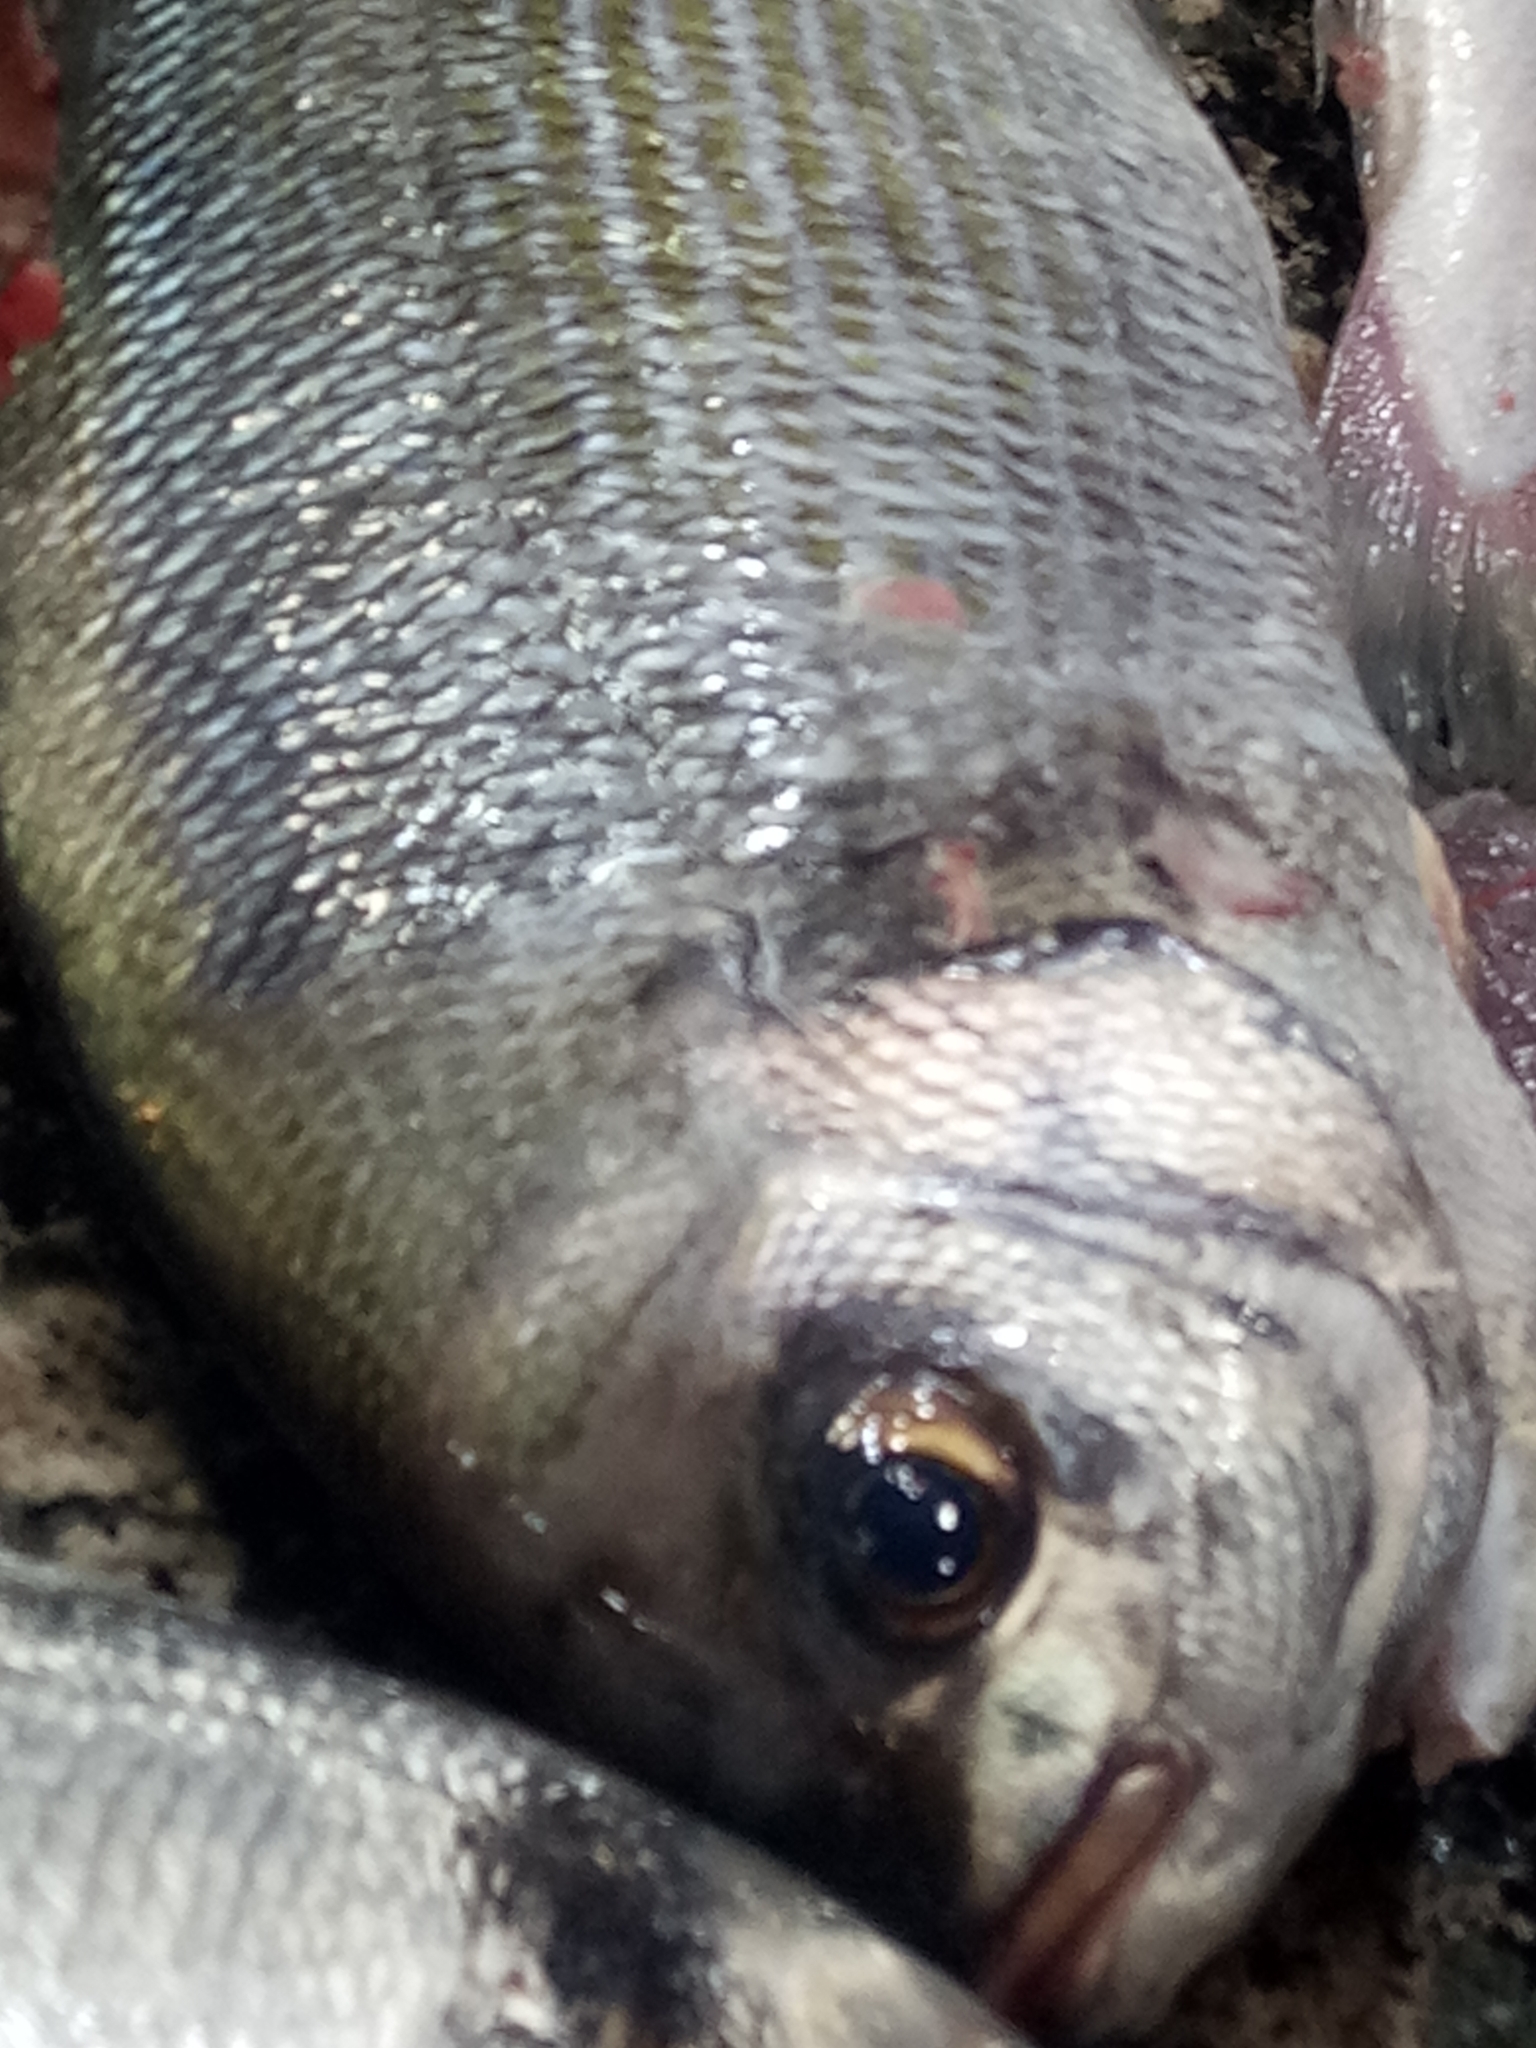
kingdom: Animalia
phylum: Chordata
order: Perciformes
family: Sparidae
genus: Spondyliosoma
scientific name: Spondyliosoma cantharus
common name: Black seabream
